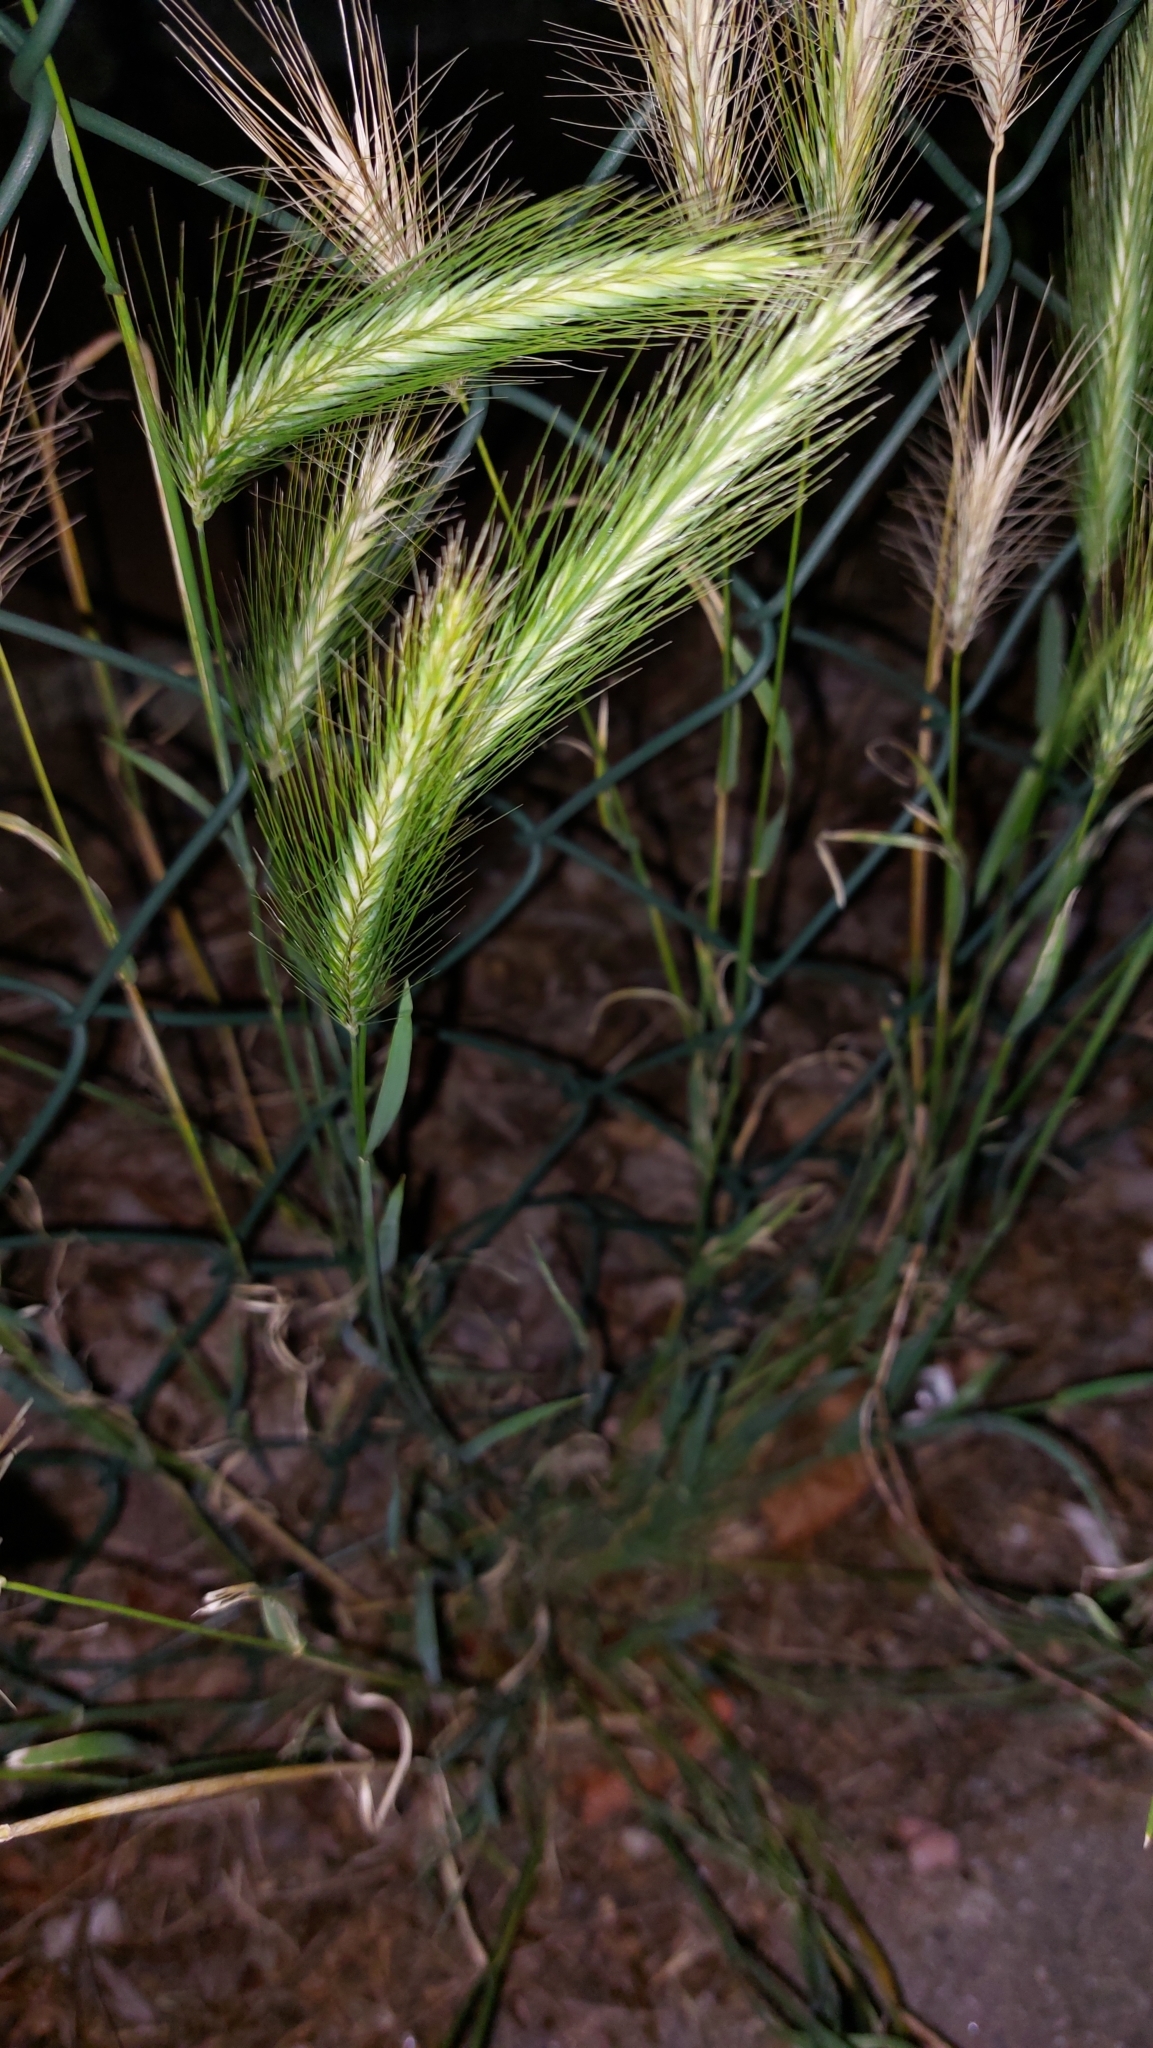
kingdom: Plantae
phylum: Tracheophyta
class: Liliopsida
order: Poales
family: Poaceae
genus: Hordeum
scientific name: Hordeum murinum
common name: Wall barley
